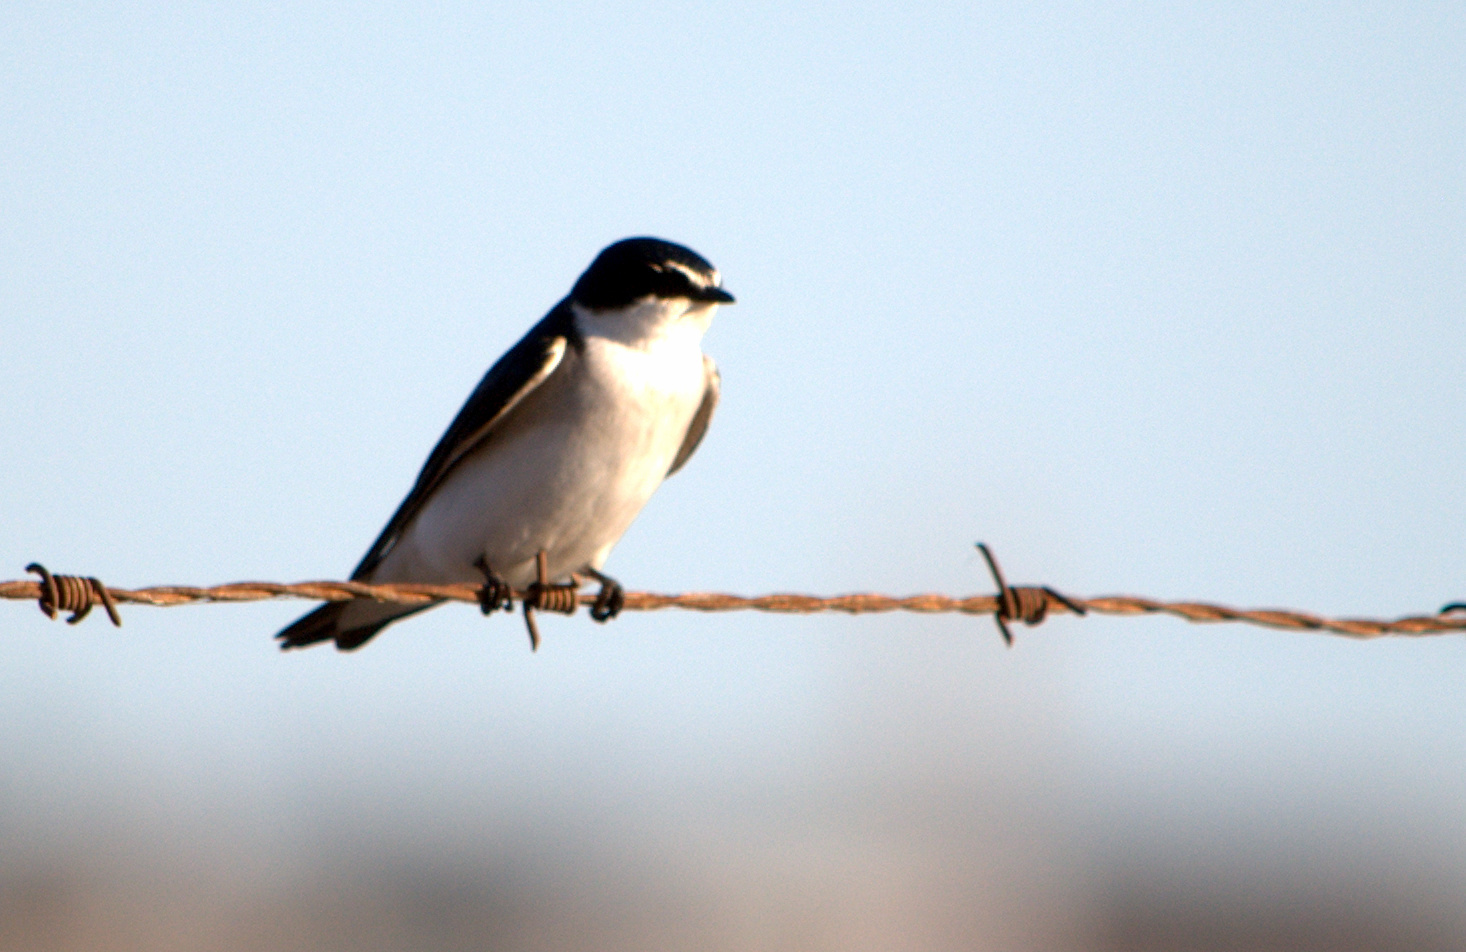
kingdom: Animalia
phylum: Chordata
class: Aves
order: Passeriformes
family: Hirundinidae
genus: Tachycineta
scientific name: Tachycineta leucorrhoa
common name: White-rumped swallow
